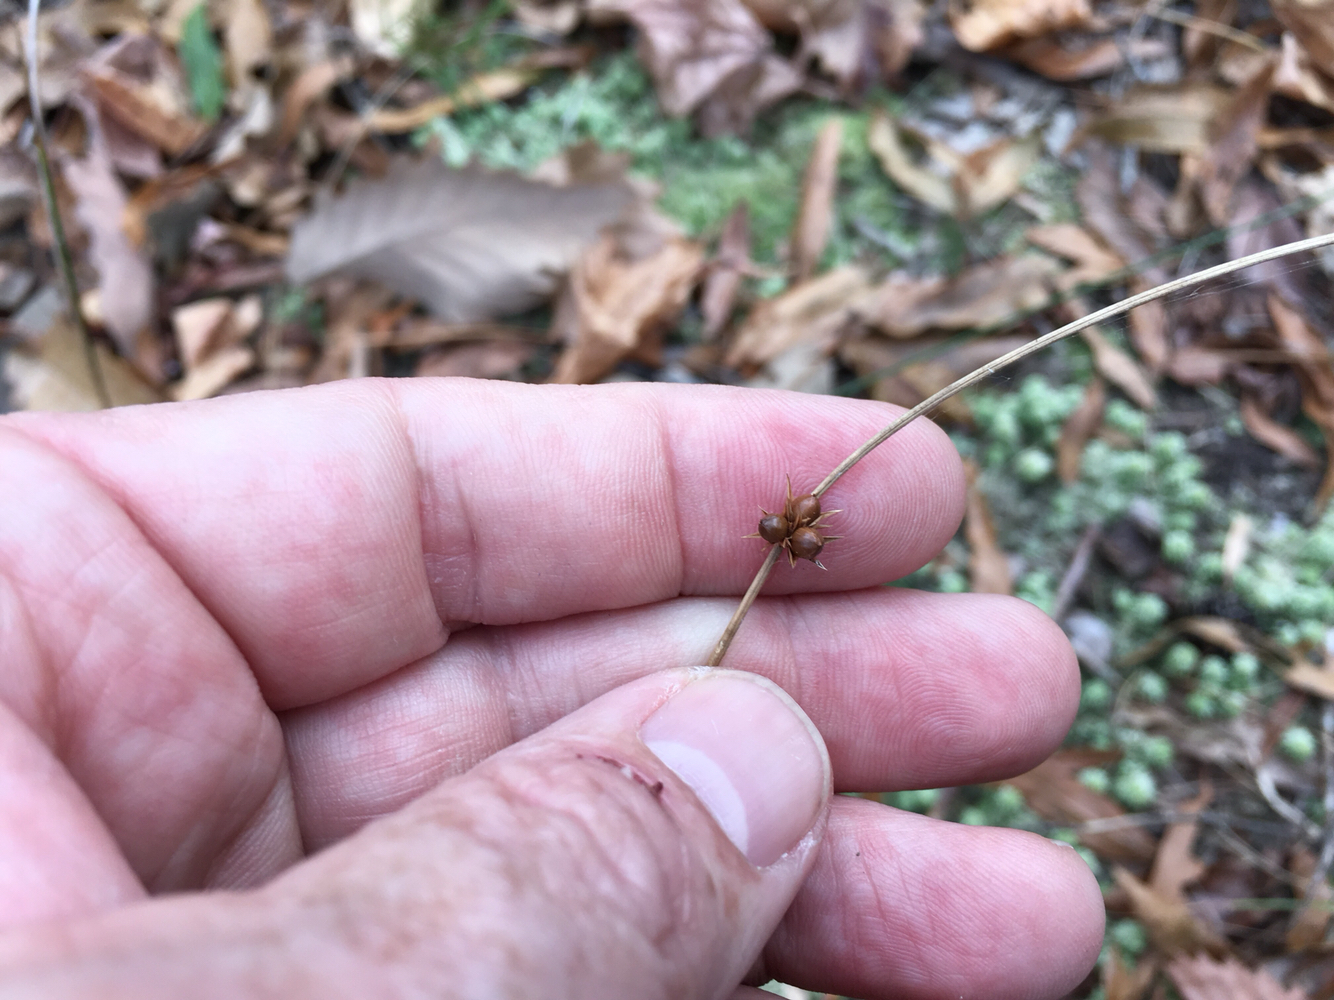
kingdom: Plantae
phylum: Tracheophyta
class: Liliopsida
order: Poales
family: Juncaceae
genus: Juncus
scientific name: Juncus coriaceus
